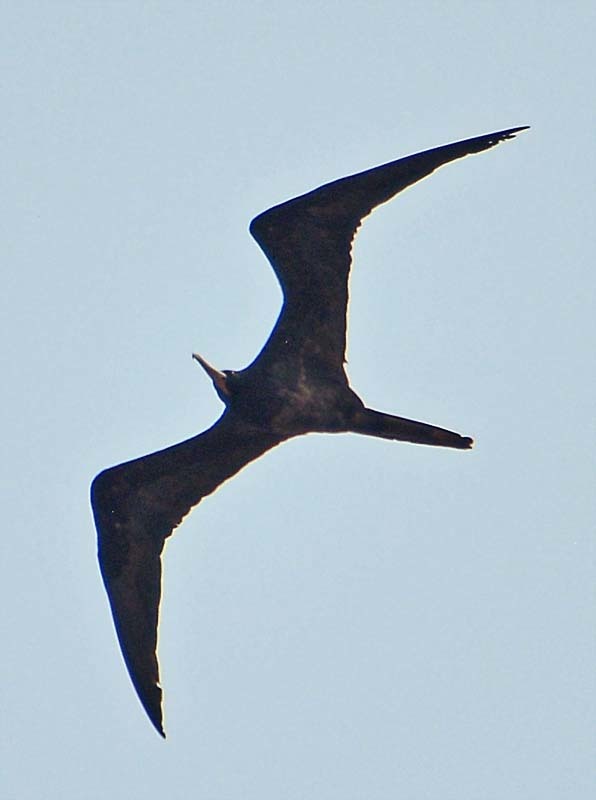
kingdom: Animalia
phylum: Chordata
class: Aves
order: Suliformes
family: Fregatidae
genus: Fregata
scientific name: Fregata magnificens
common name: Magnificent frigatebird
